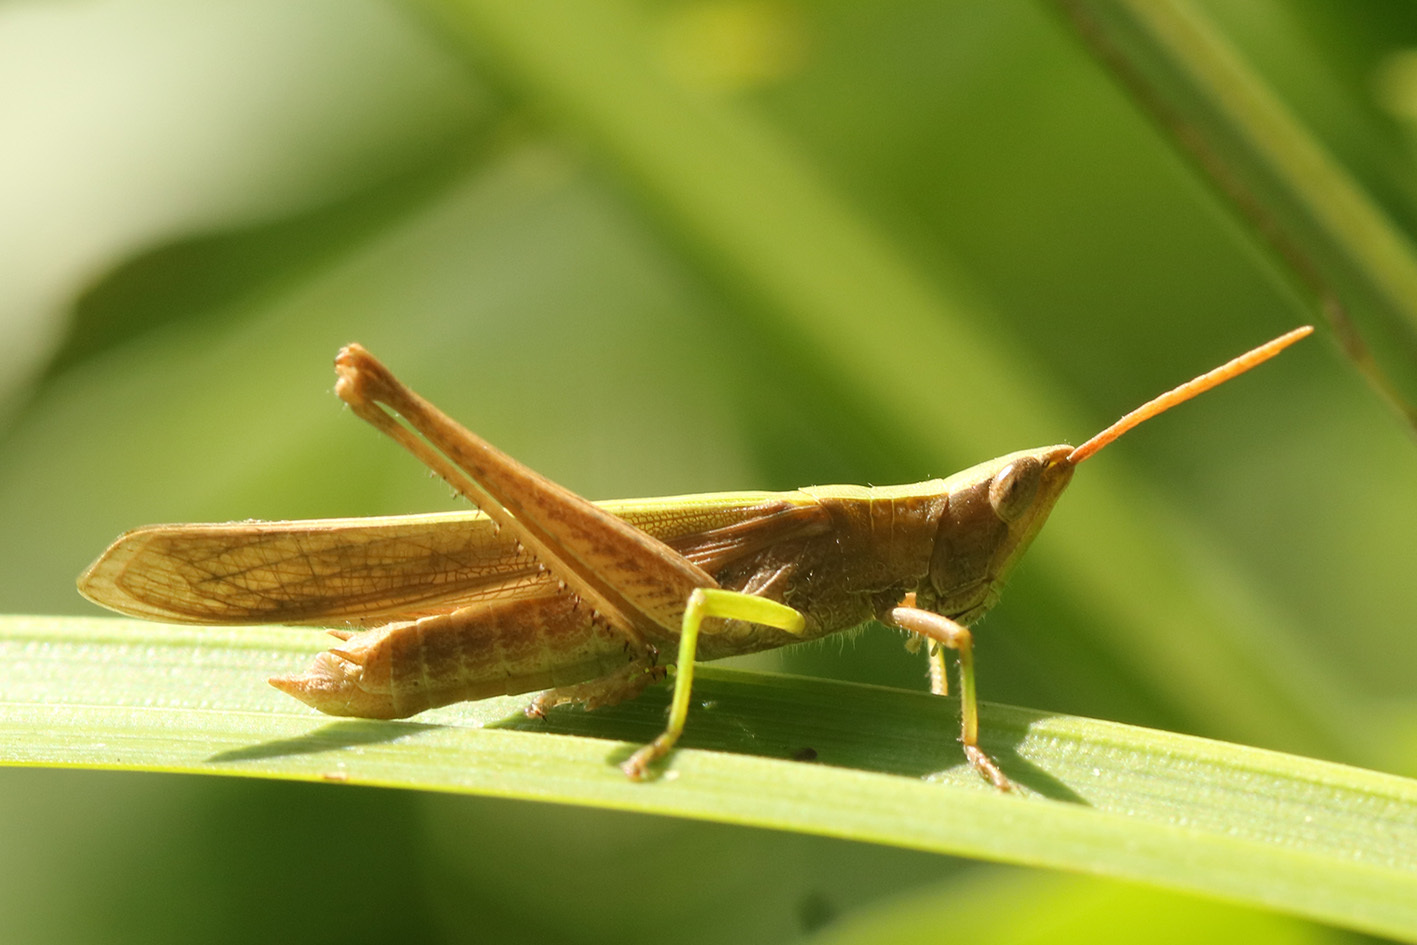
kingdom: Animalia
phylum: Arthropoda
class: Insecta
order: Orthoptera
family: Acrididae
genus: Metaleptea
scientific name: Metaleptea adspersa
